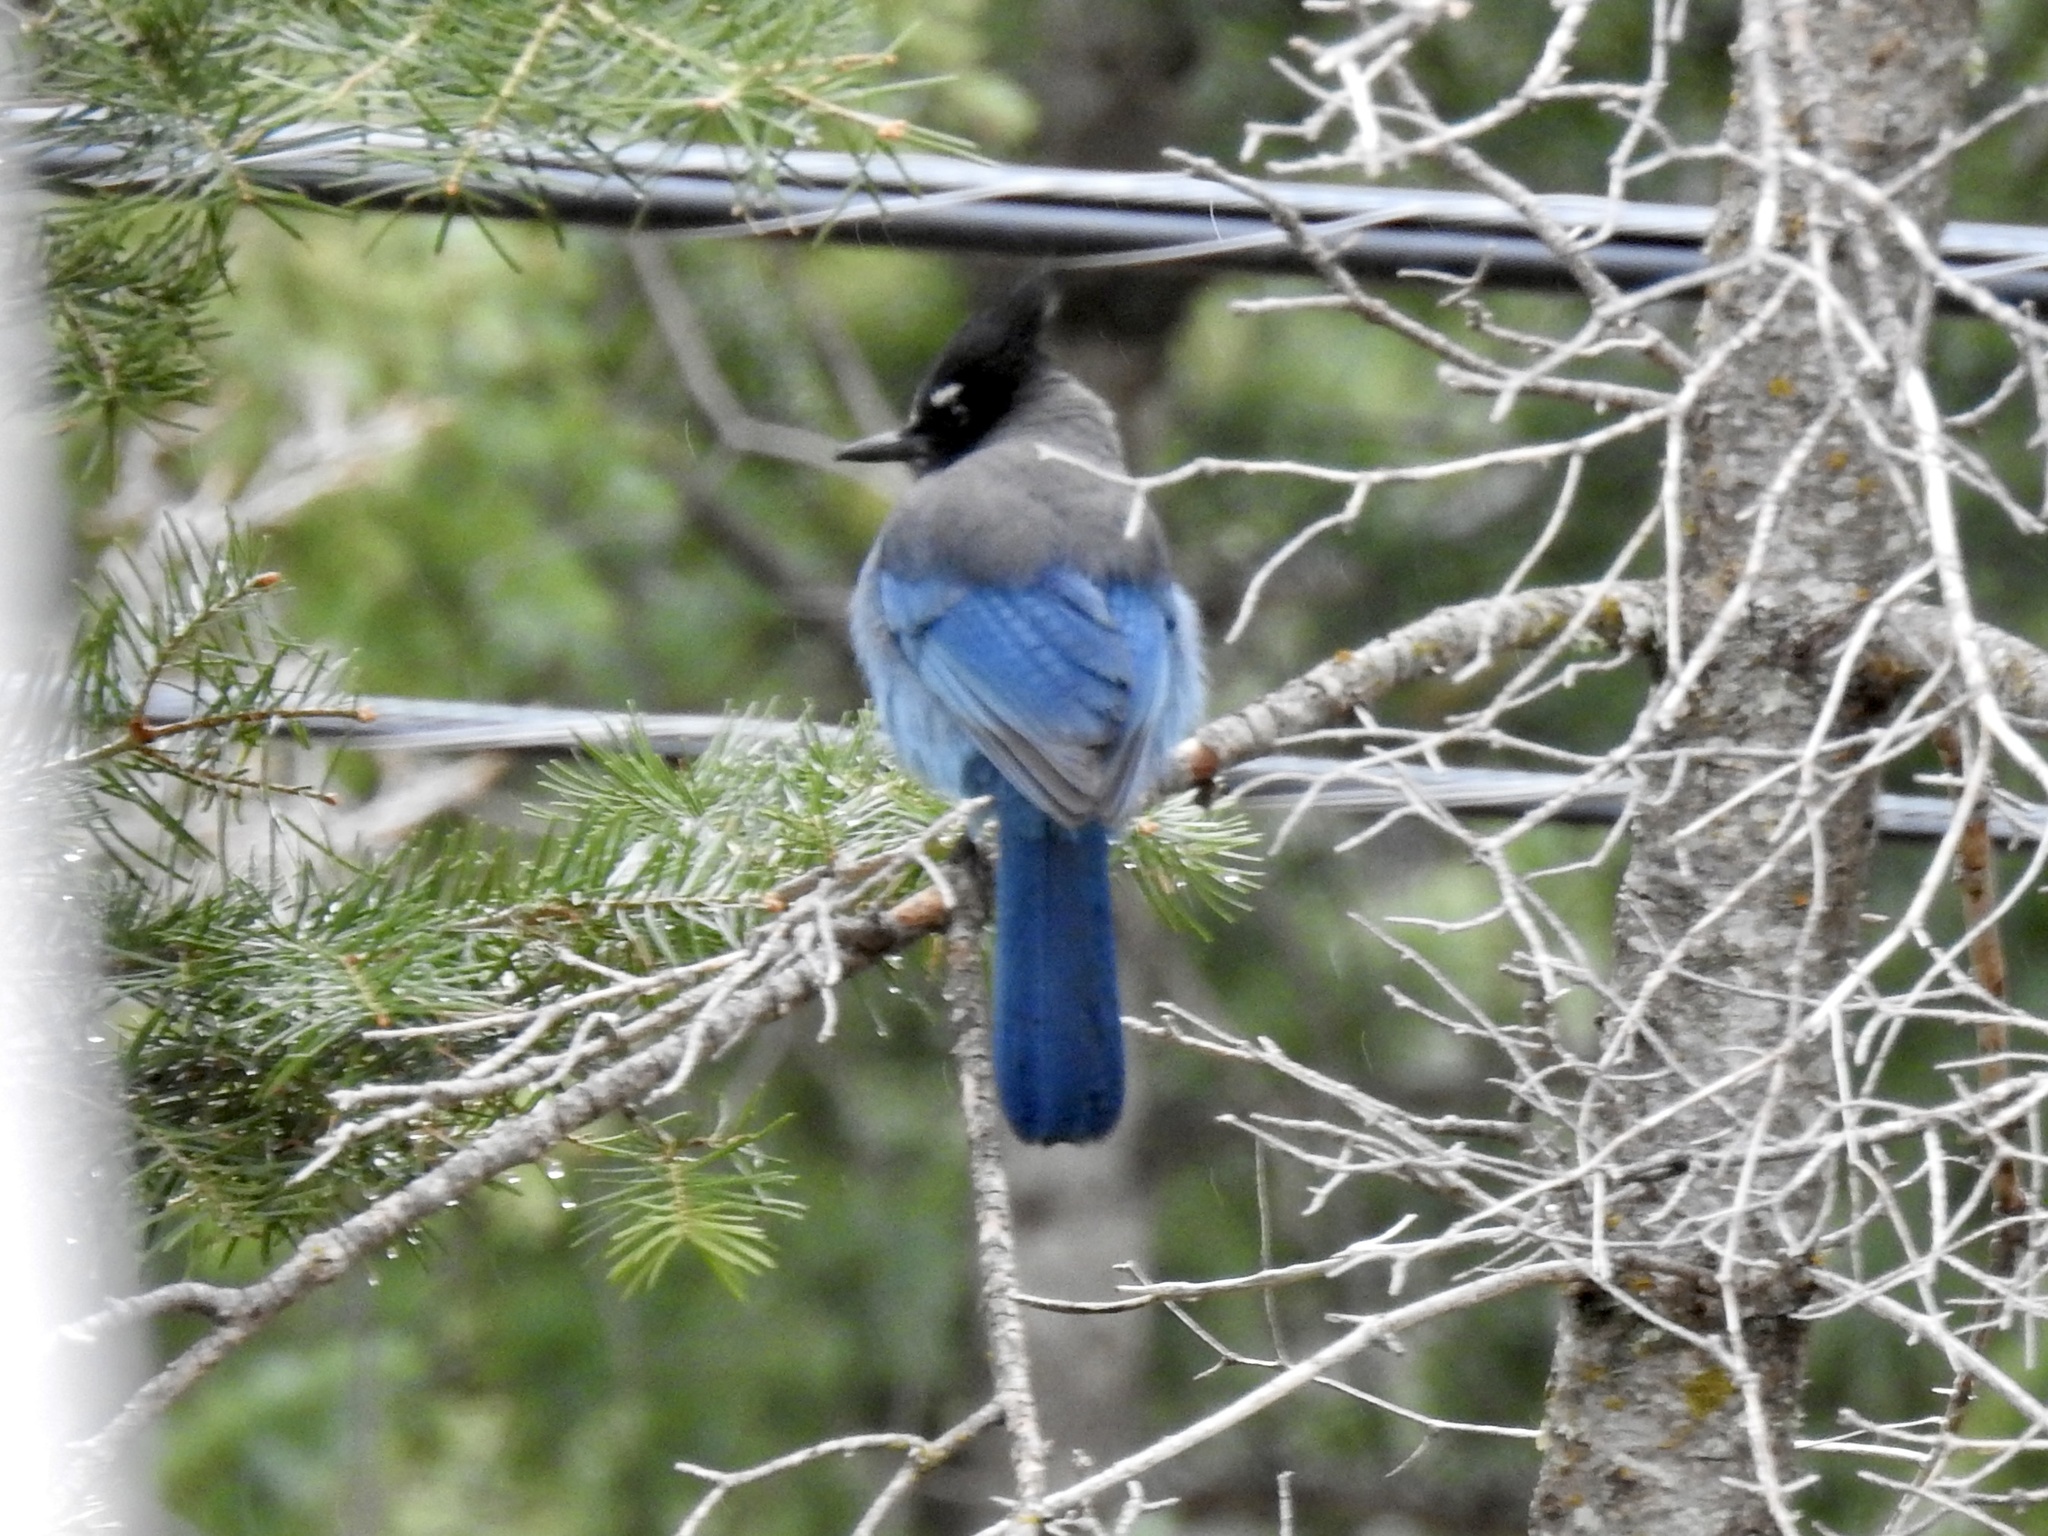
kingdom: Animalia
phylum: Chordata
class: Aves
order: Passeriformes
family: Corvidae
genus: Cyanocitta
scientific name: Cyanocitta stelleri
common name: Steller's jay
